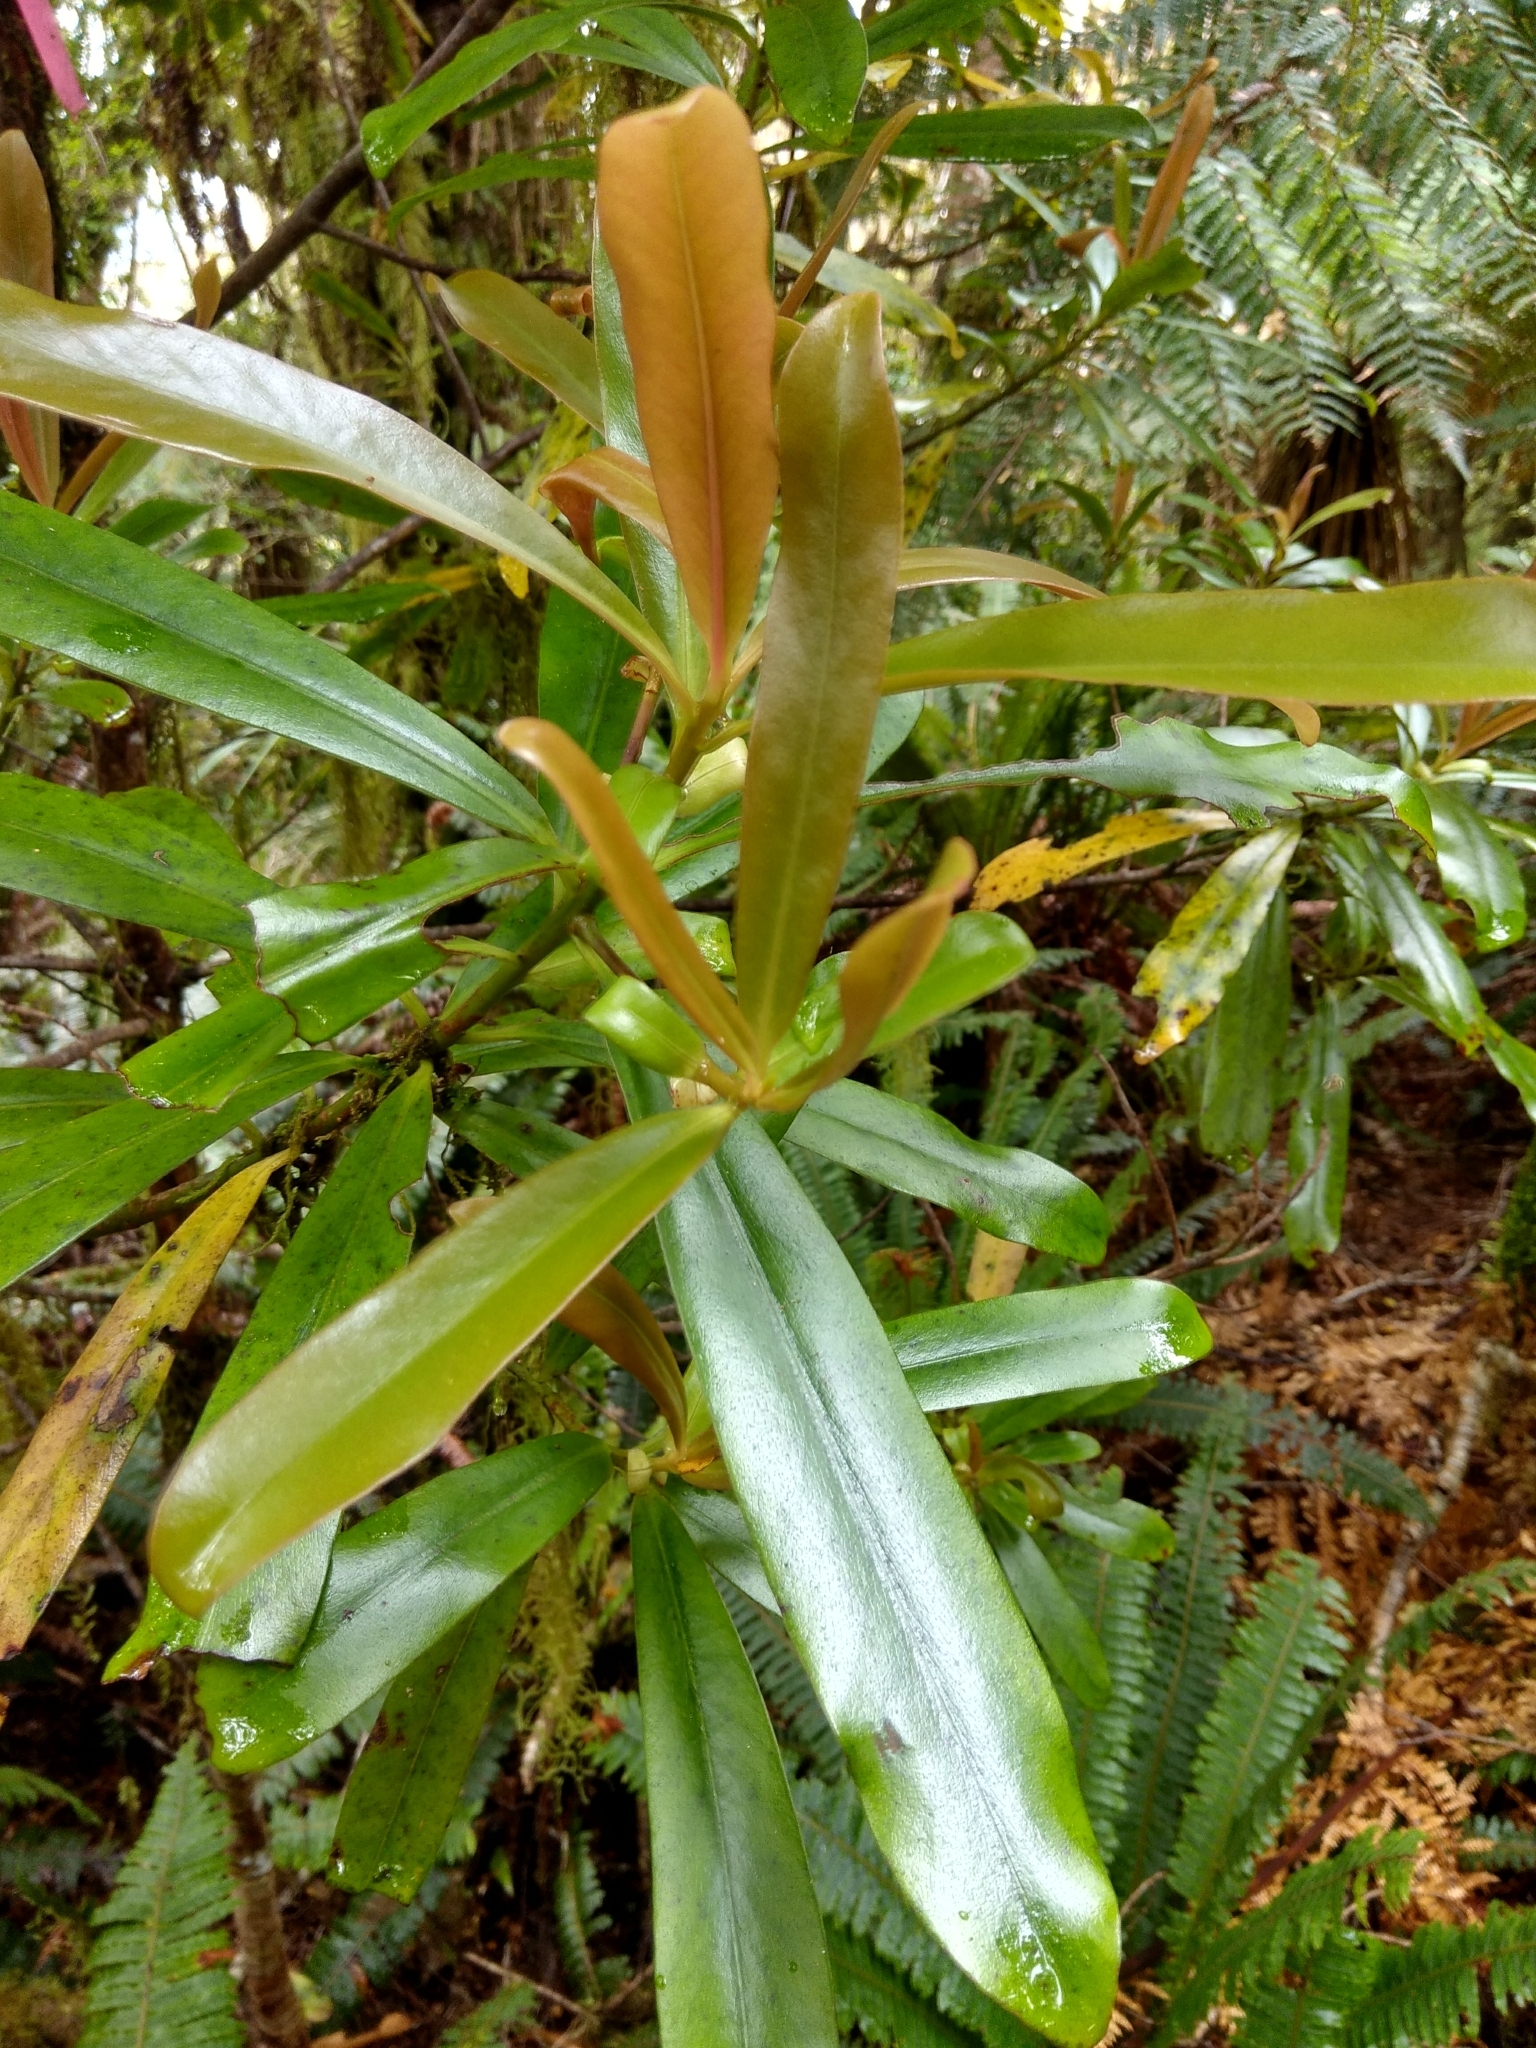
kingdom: Plantae
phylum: Tracheophyta
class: Magnoliopsida
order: Ericales
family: Primulaceae
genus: Myrsine
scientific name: Myrsine salicina
